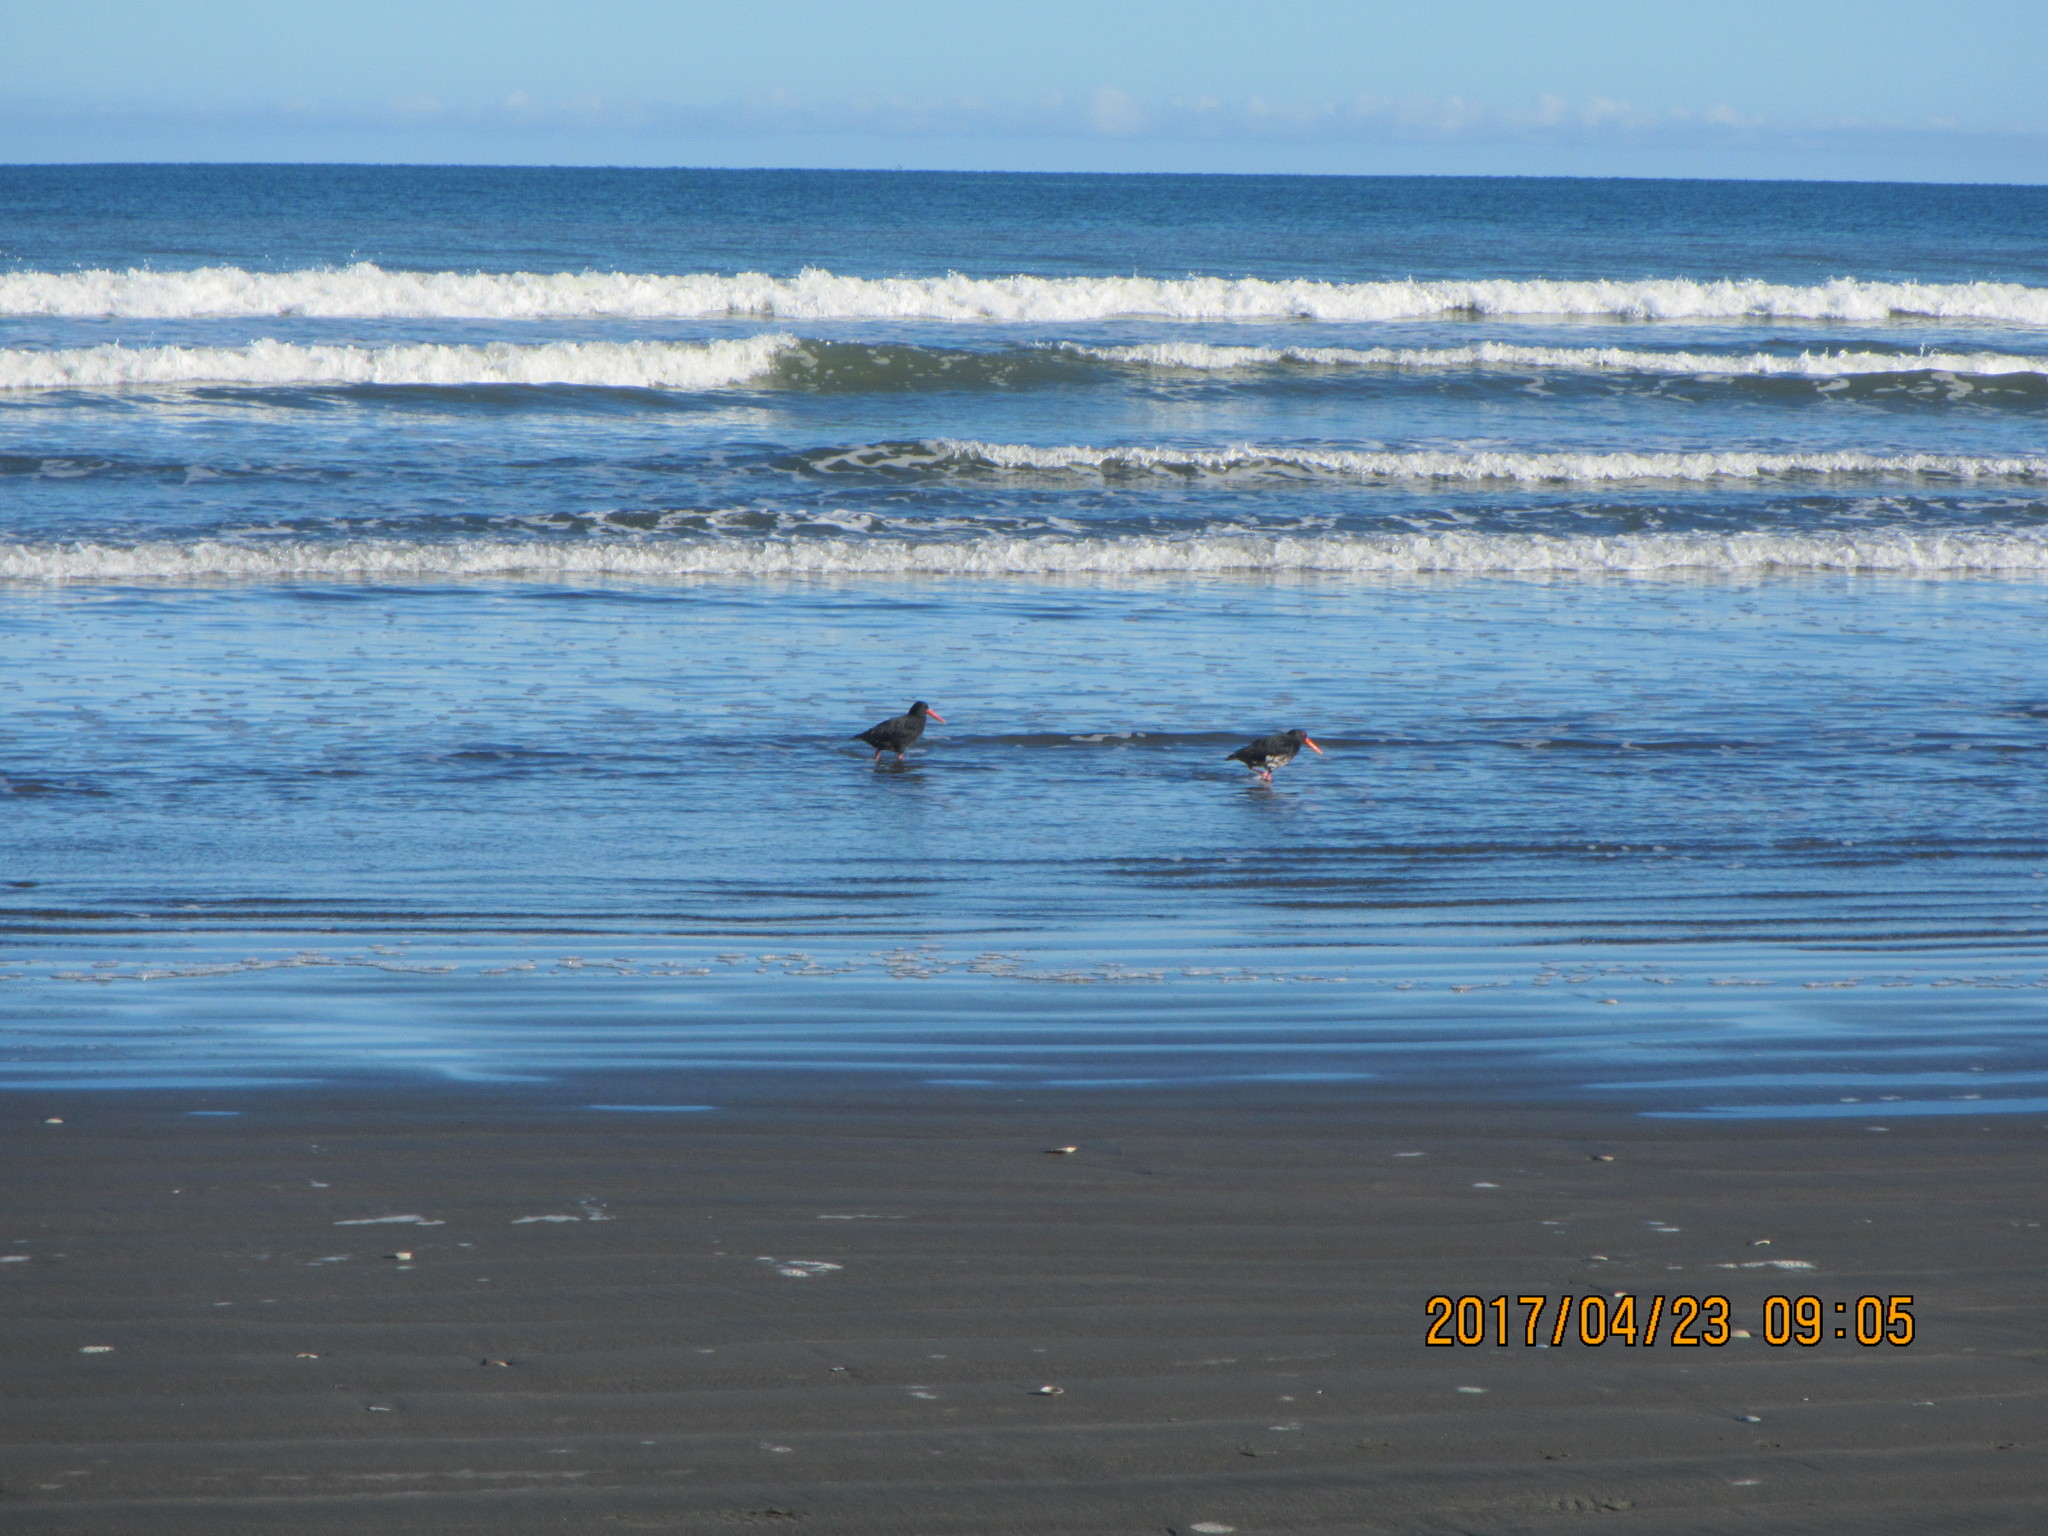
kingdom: Animalia
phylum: Chordata
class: Aves
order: Charadriiformes
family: Haematopodidae
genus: Haematopus
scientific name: Haematopus unicolor
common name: Variable oystercatcher
